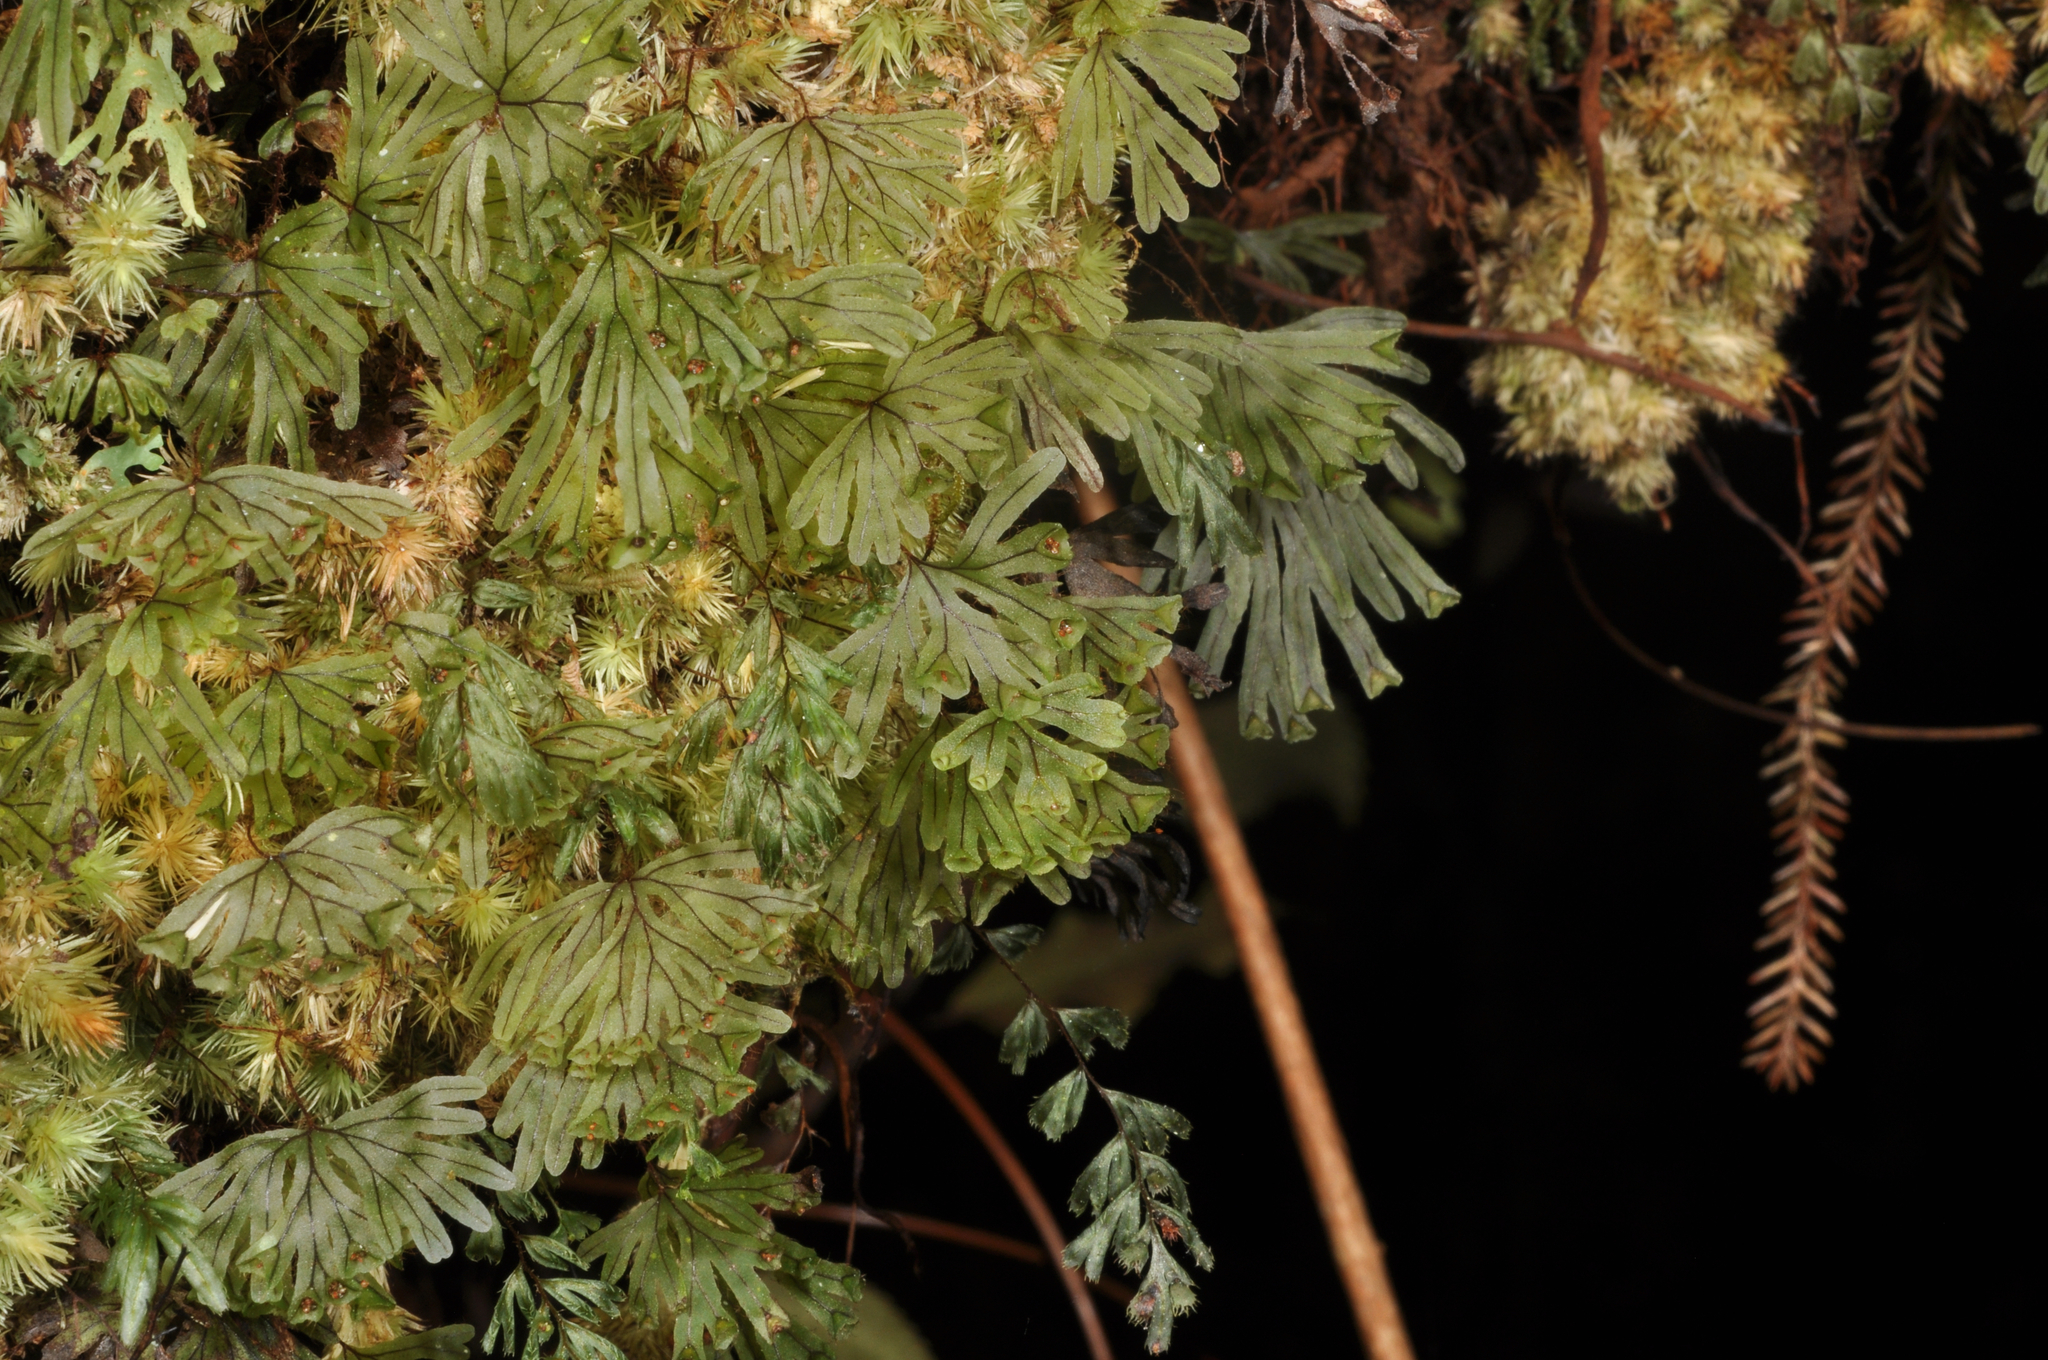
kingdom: Plantae
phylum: Tracheophyta
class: Polypodiopsida
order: Hymenophyllales
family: Hymenophyllaceae
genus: Hymenophyllum
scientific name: Hymenophyllum lyallii
